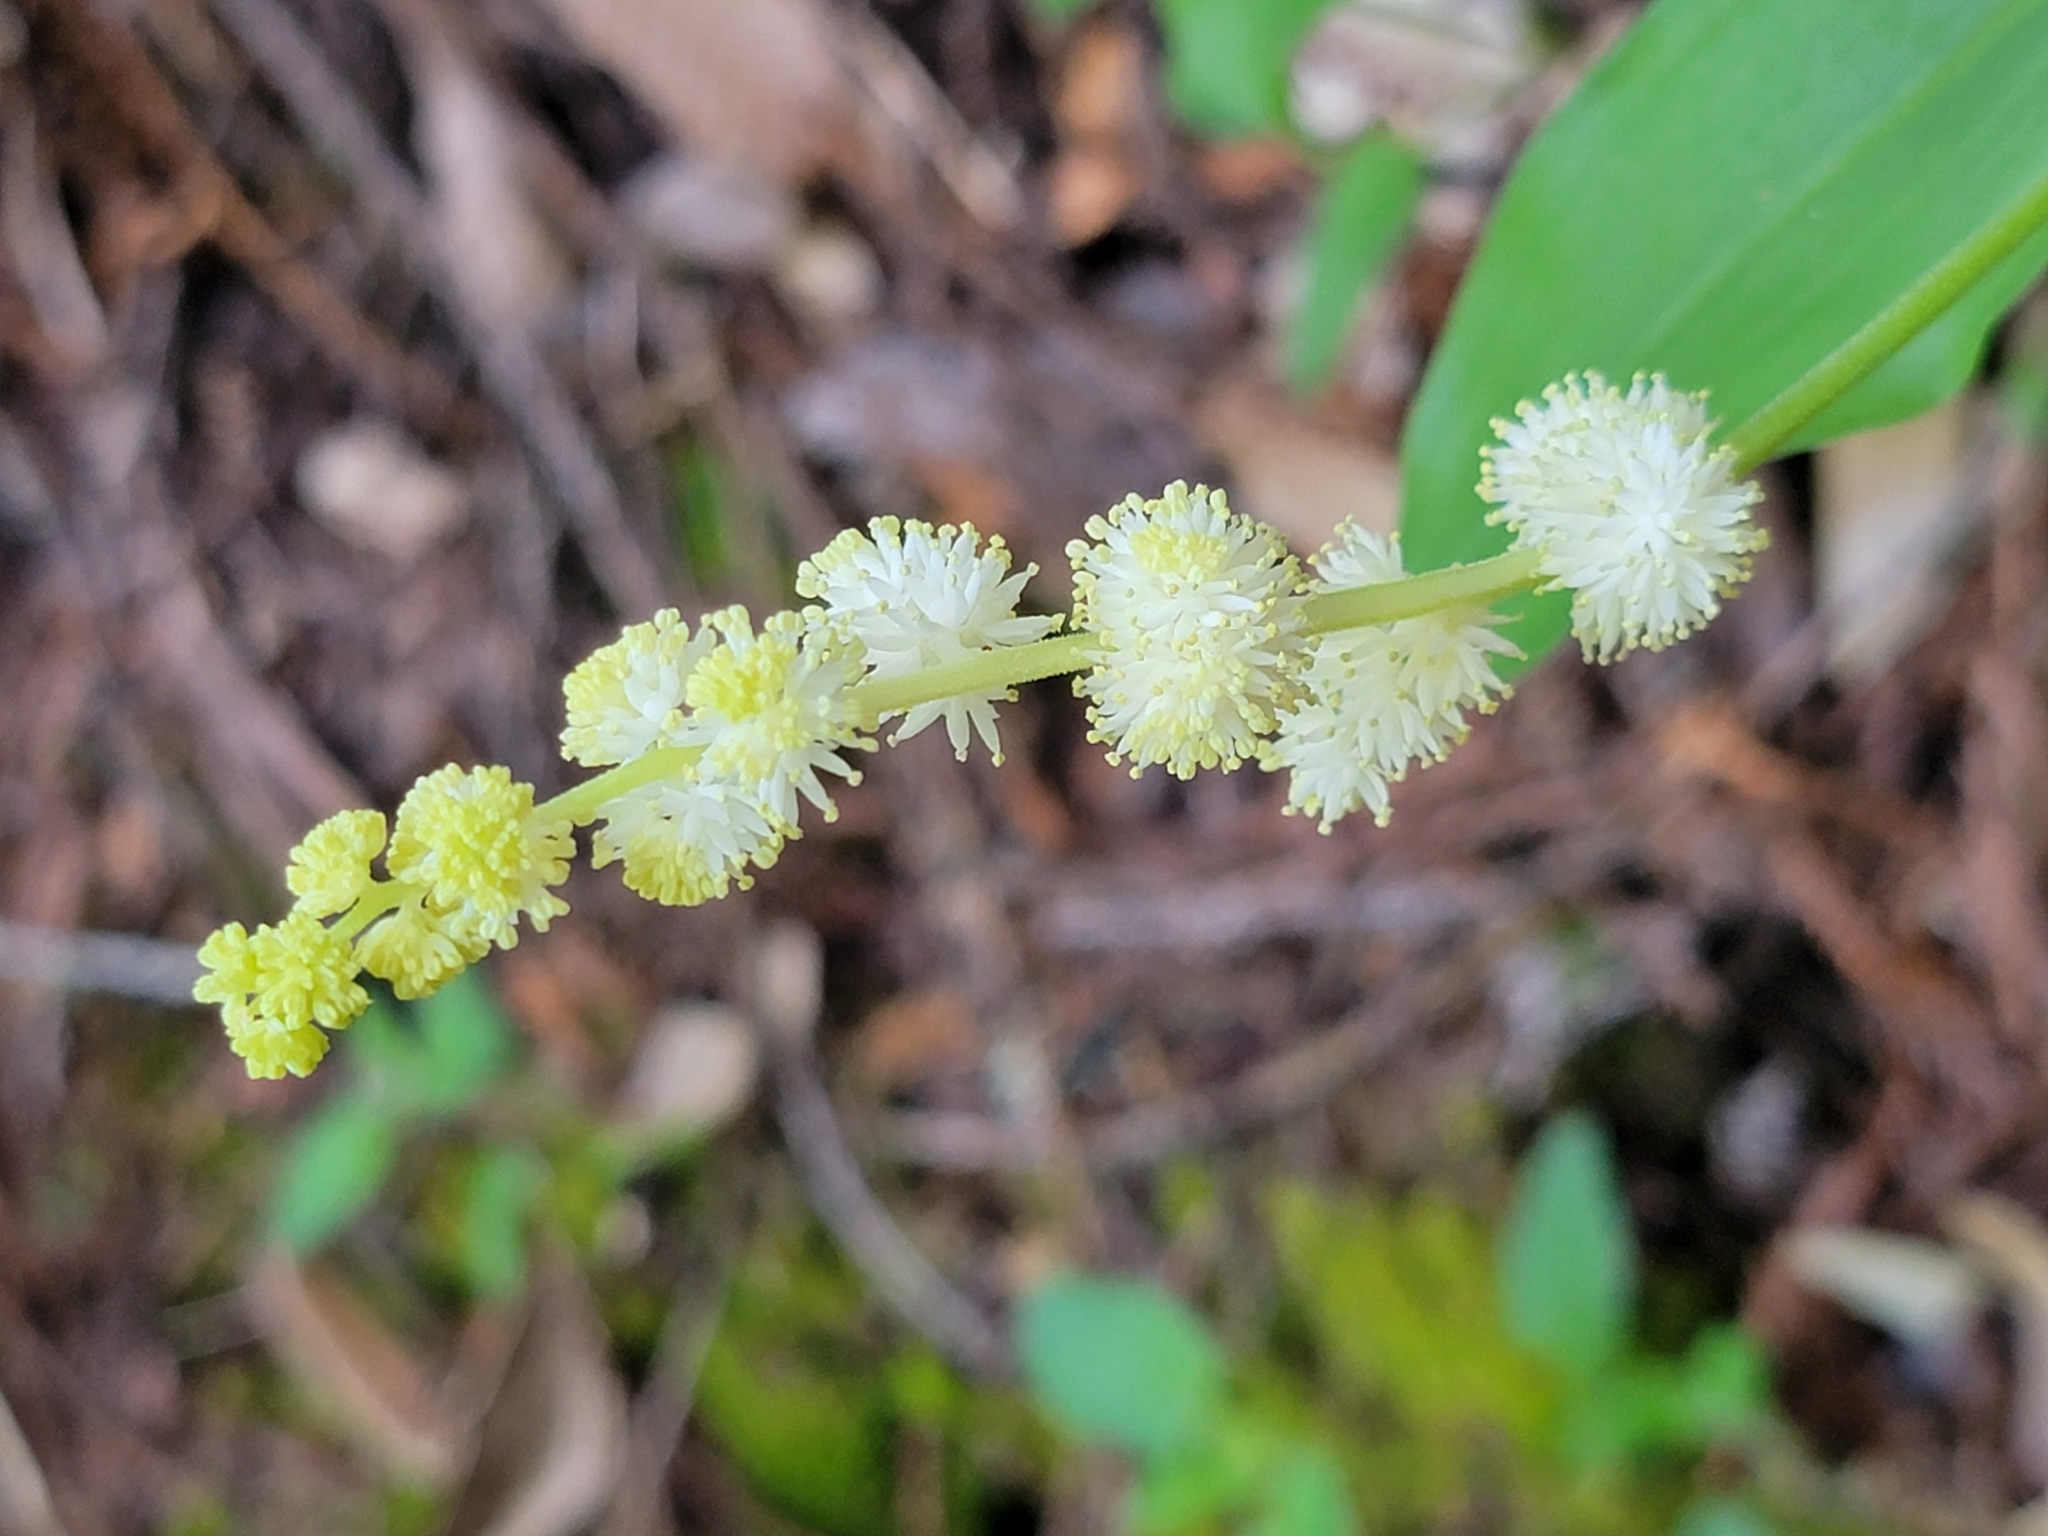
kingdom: Plantae
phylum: Tracheophyta
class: Liliopsida
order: Asparagales
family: Asparagaceae
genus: Maianthemum
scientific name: Maianthemum racemosum
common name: False spikenard
